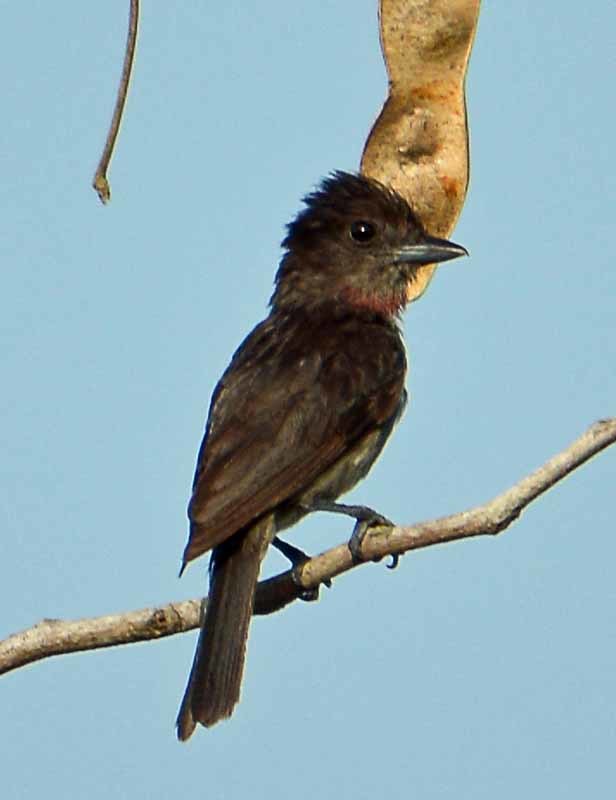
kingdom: Animalia
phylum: Chordata
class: Aves
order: Passeriformes
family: Cotingidae
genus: Pachyramphus
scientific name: Pachyramphus aglaiae
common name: Rose-throated becard
